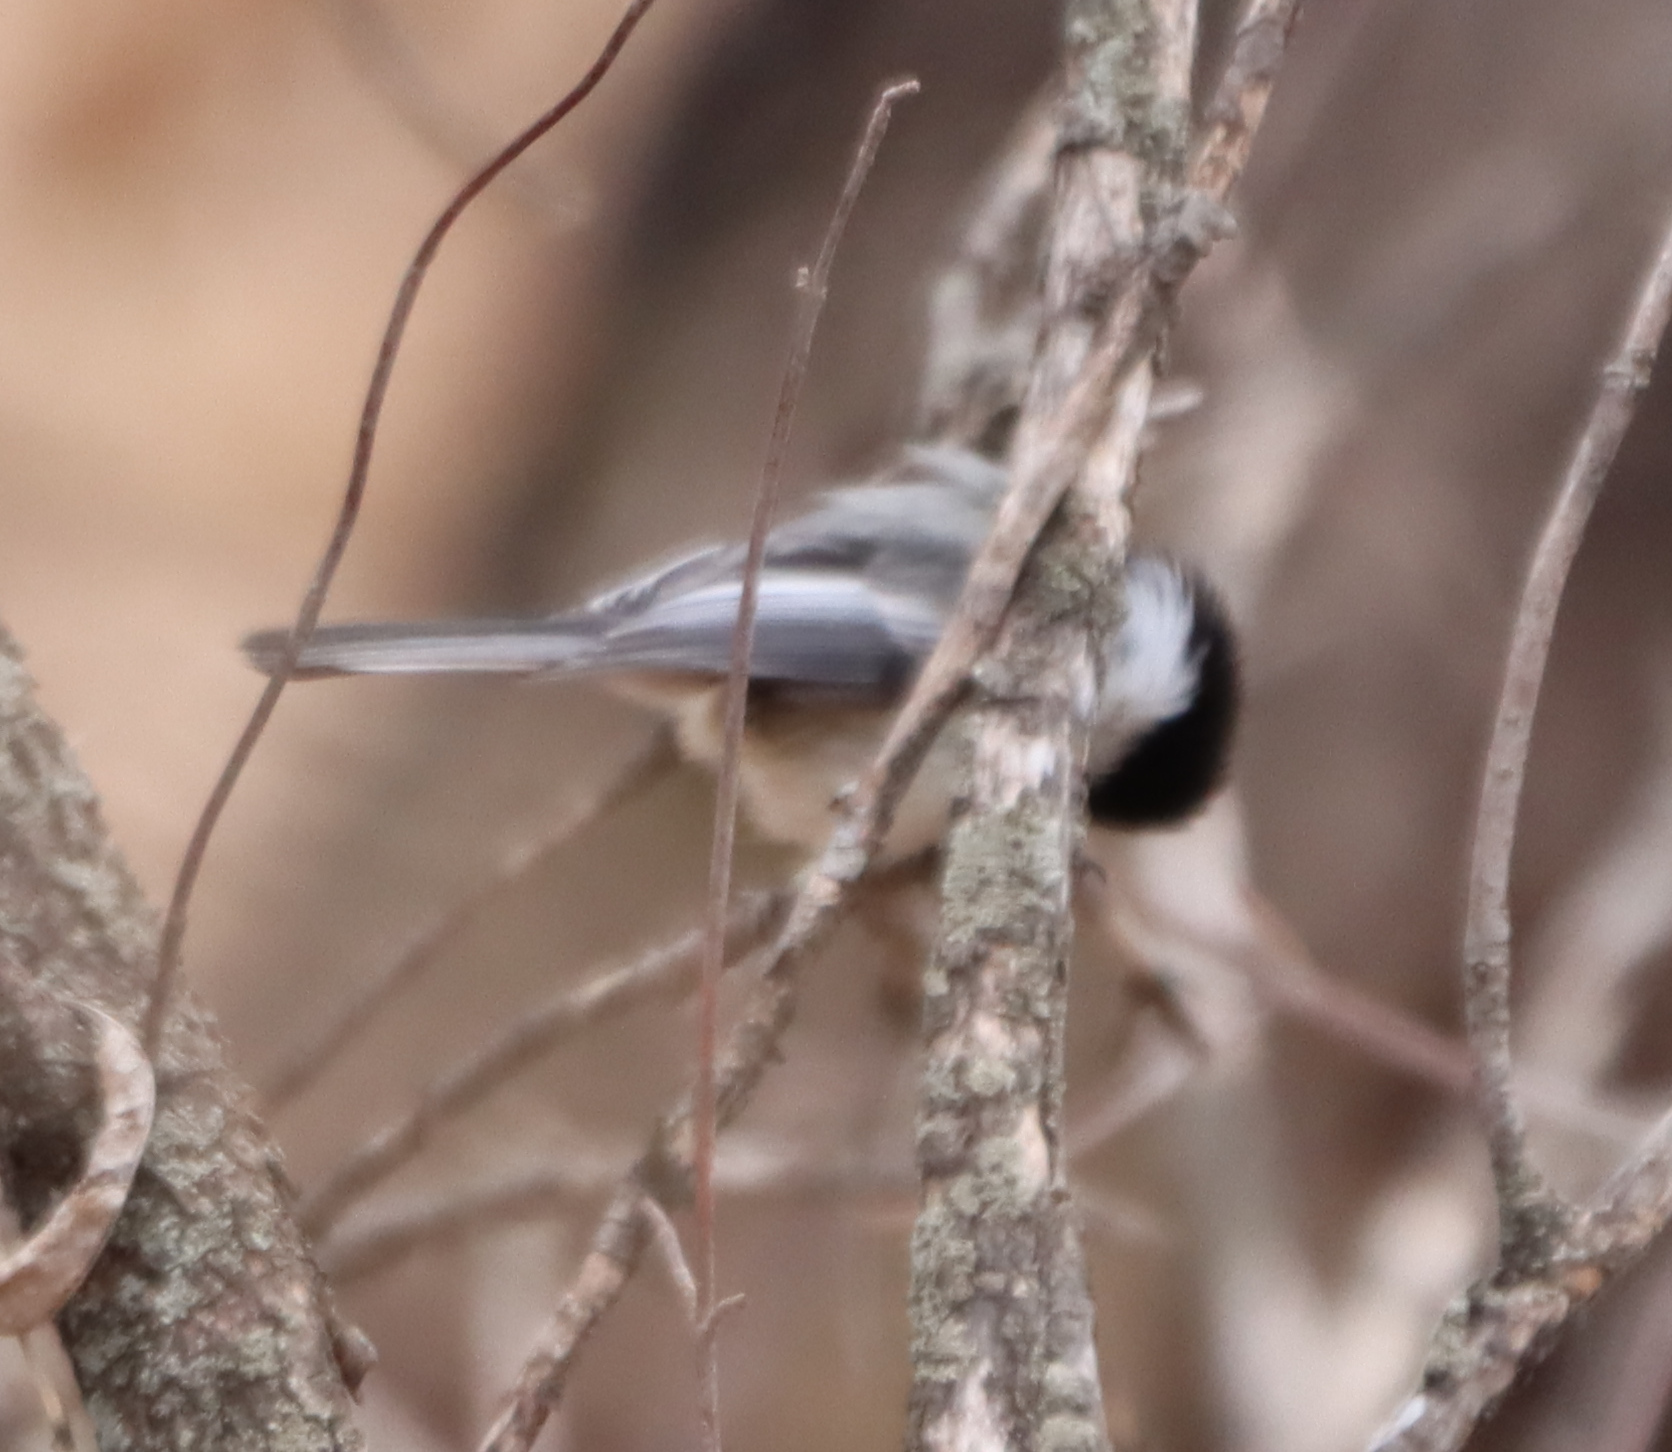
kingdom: Animalia
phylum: Chordata
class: Aves
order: Passeriformes
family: Paridae
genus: Poecile
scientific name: Poecile atricapillus
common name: Black-capped chickadee
